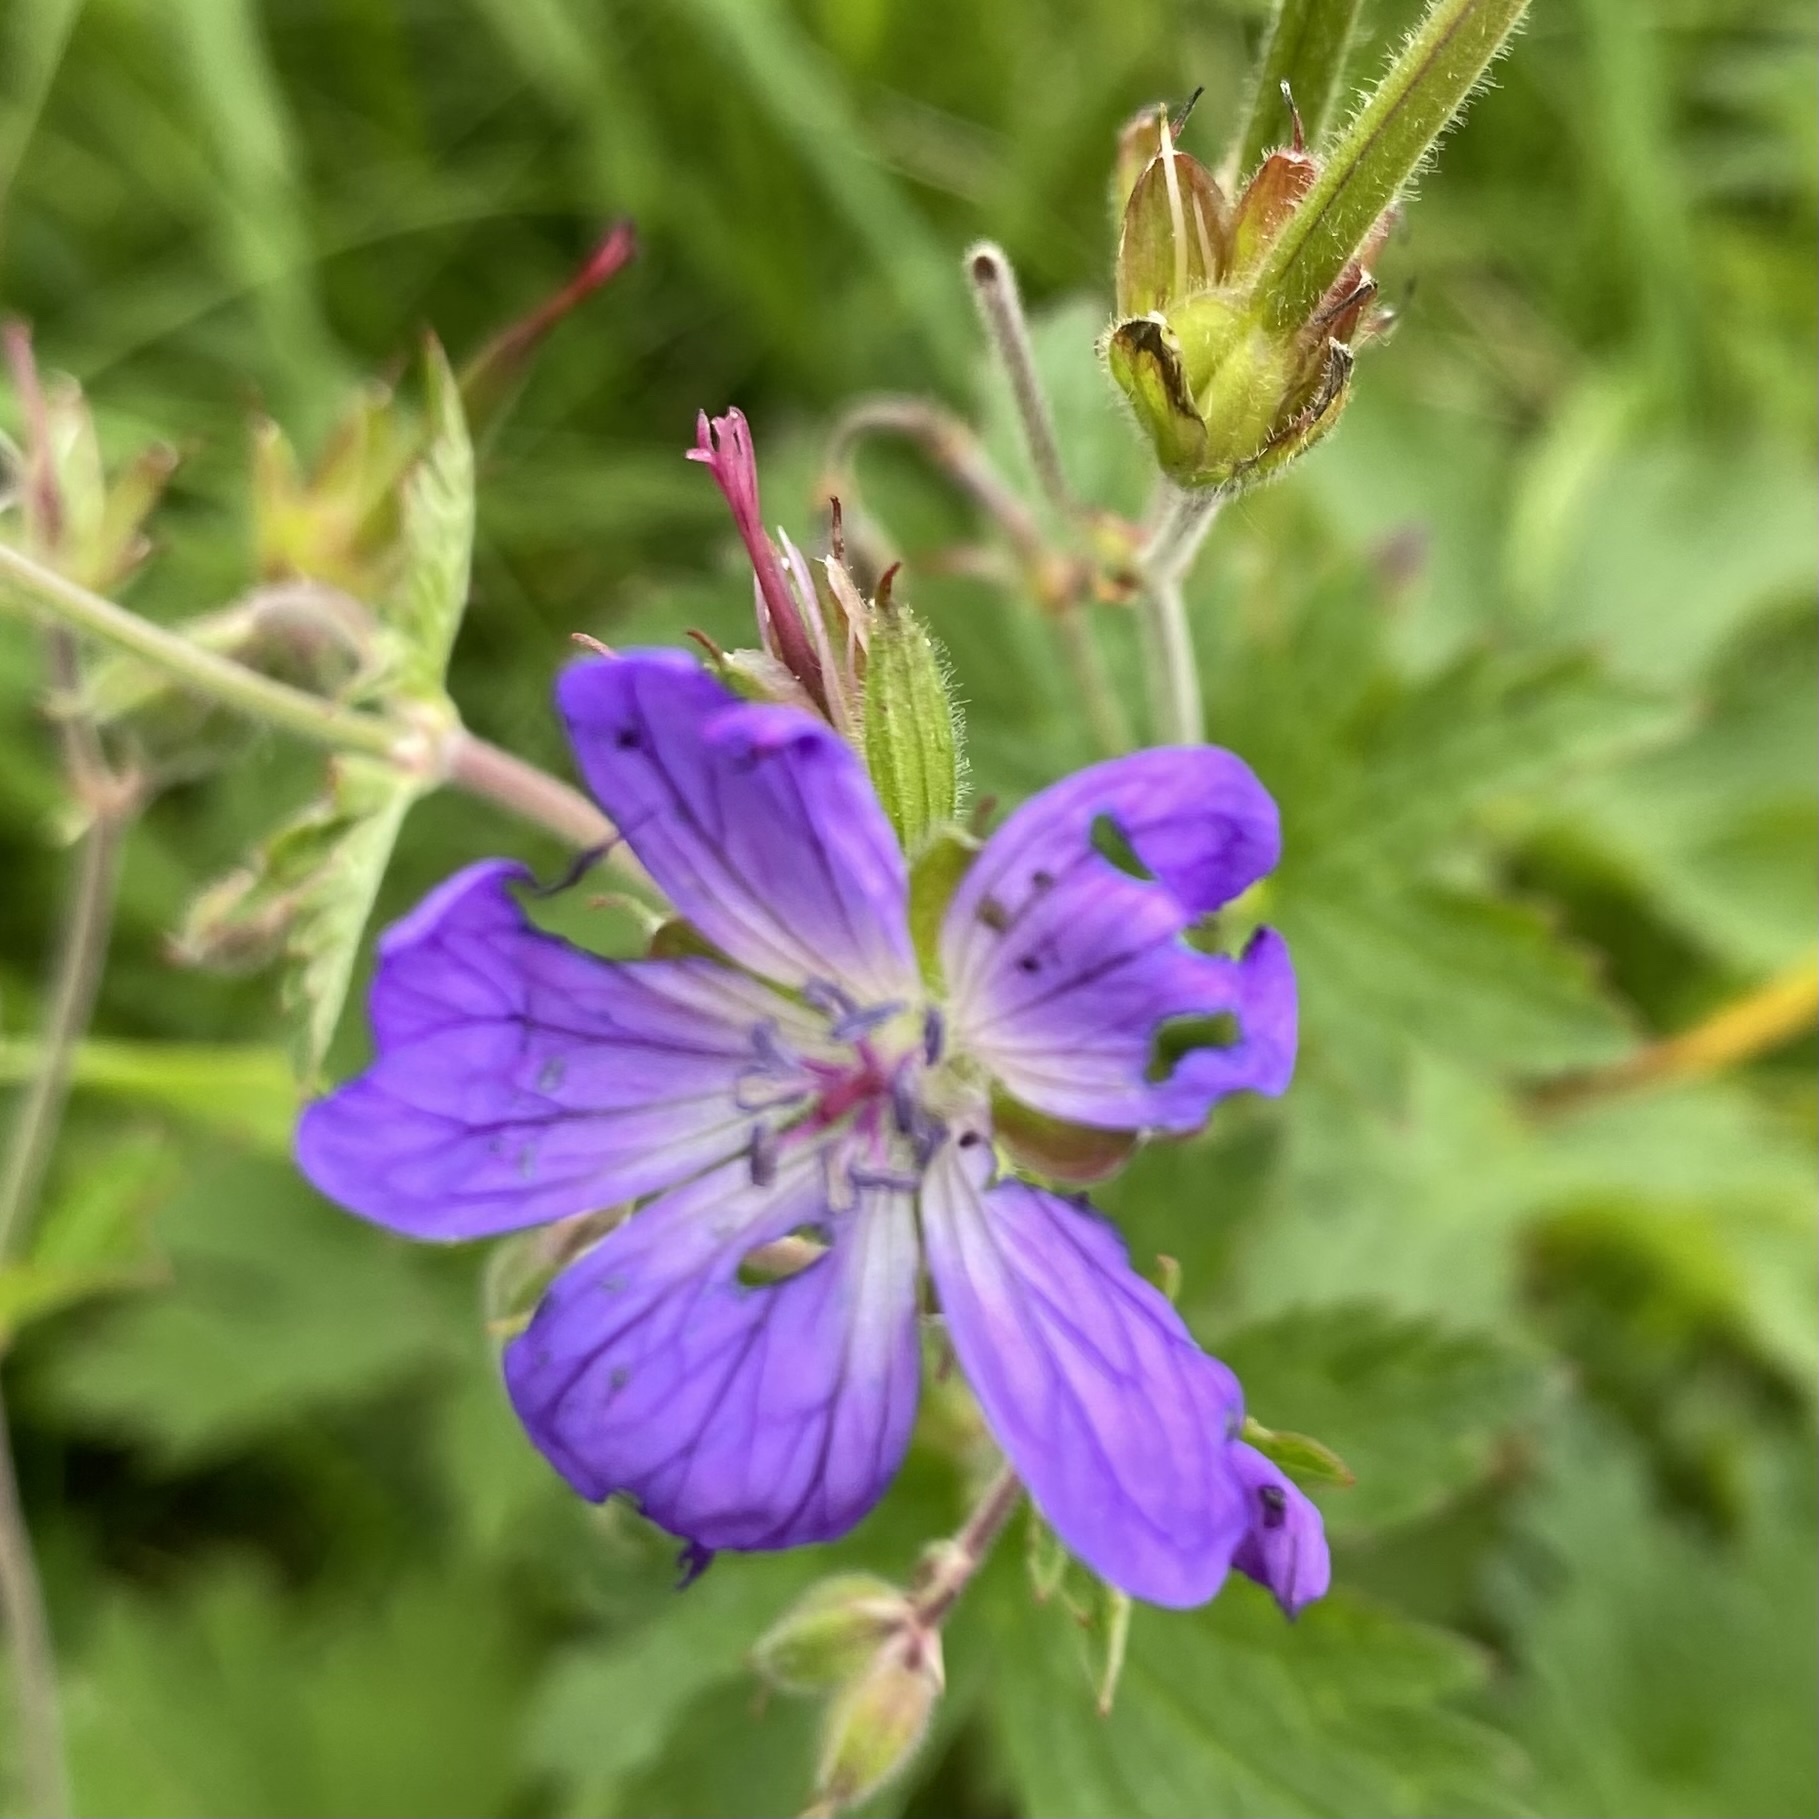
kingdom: Plantae
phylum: Tracheophyta
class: Magnoliopsida
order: Geraniales
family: Geraniaceae
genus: Geranium
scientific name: Geranium sylvaticum
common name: Wood crane's-bill
